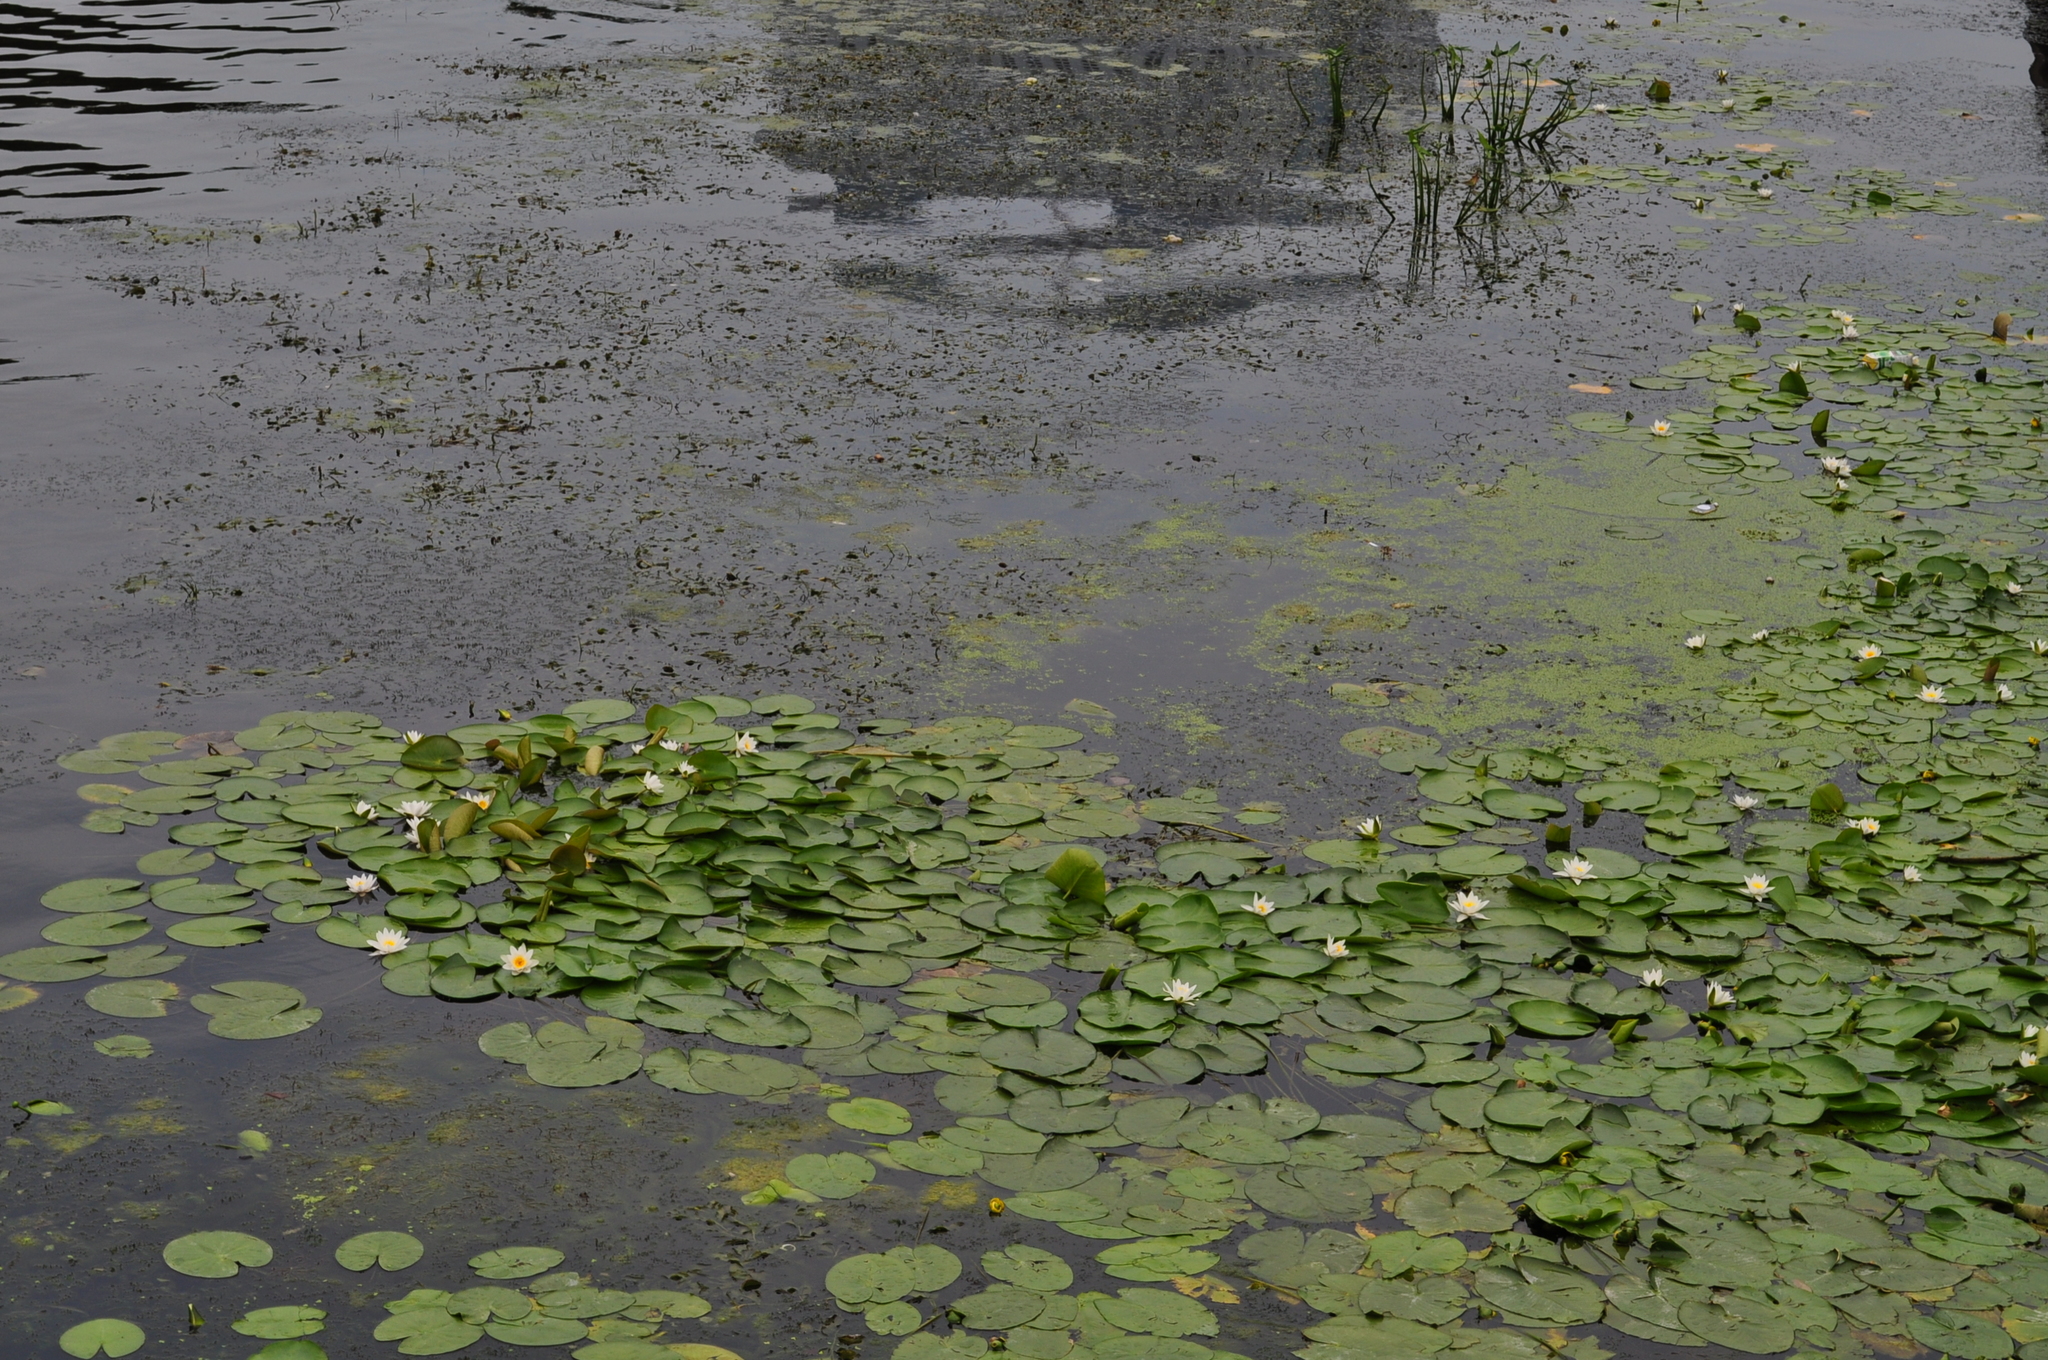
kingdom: Plantae
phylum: Tracheophyta
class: Magnoliopsida
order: Nymphaeales
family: Nymphaeaceae
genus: Nymphaea
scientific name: Nymphaea alba
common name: White water-lily
